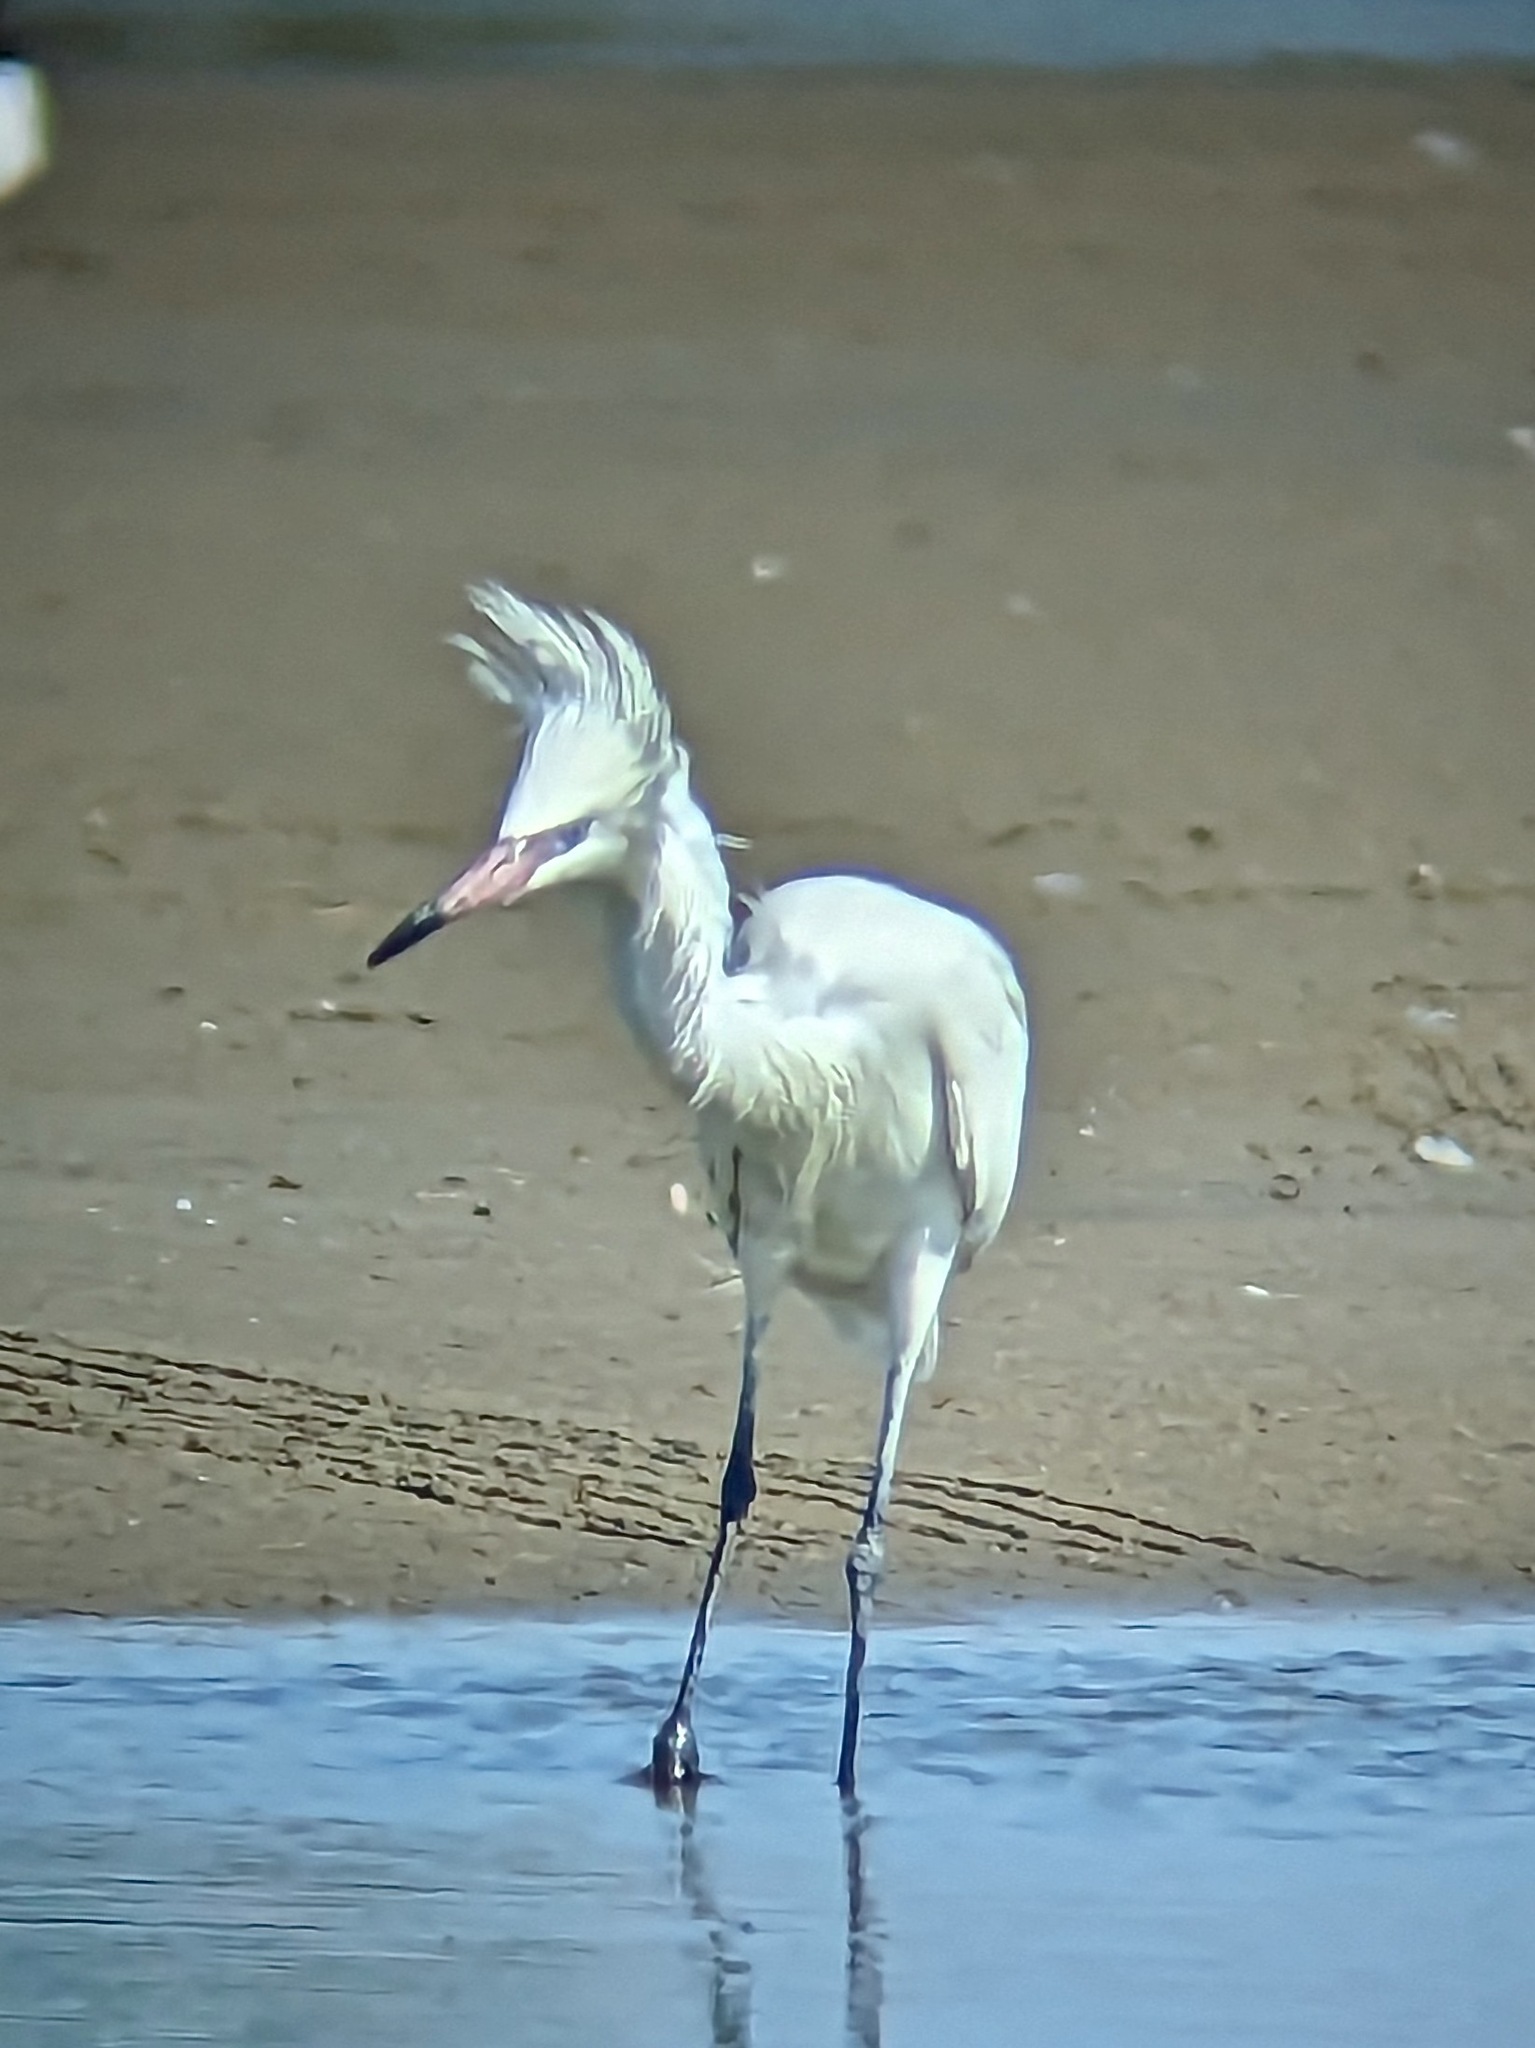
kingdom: Animalia
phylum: Chordata
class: Aves
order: Pelecaniformes
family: Ardeidae
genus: Egretta
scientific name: Egretta rufescens
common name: Reddish egret
